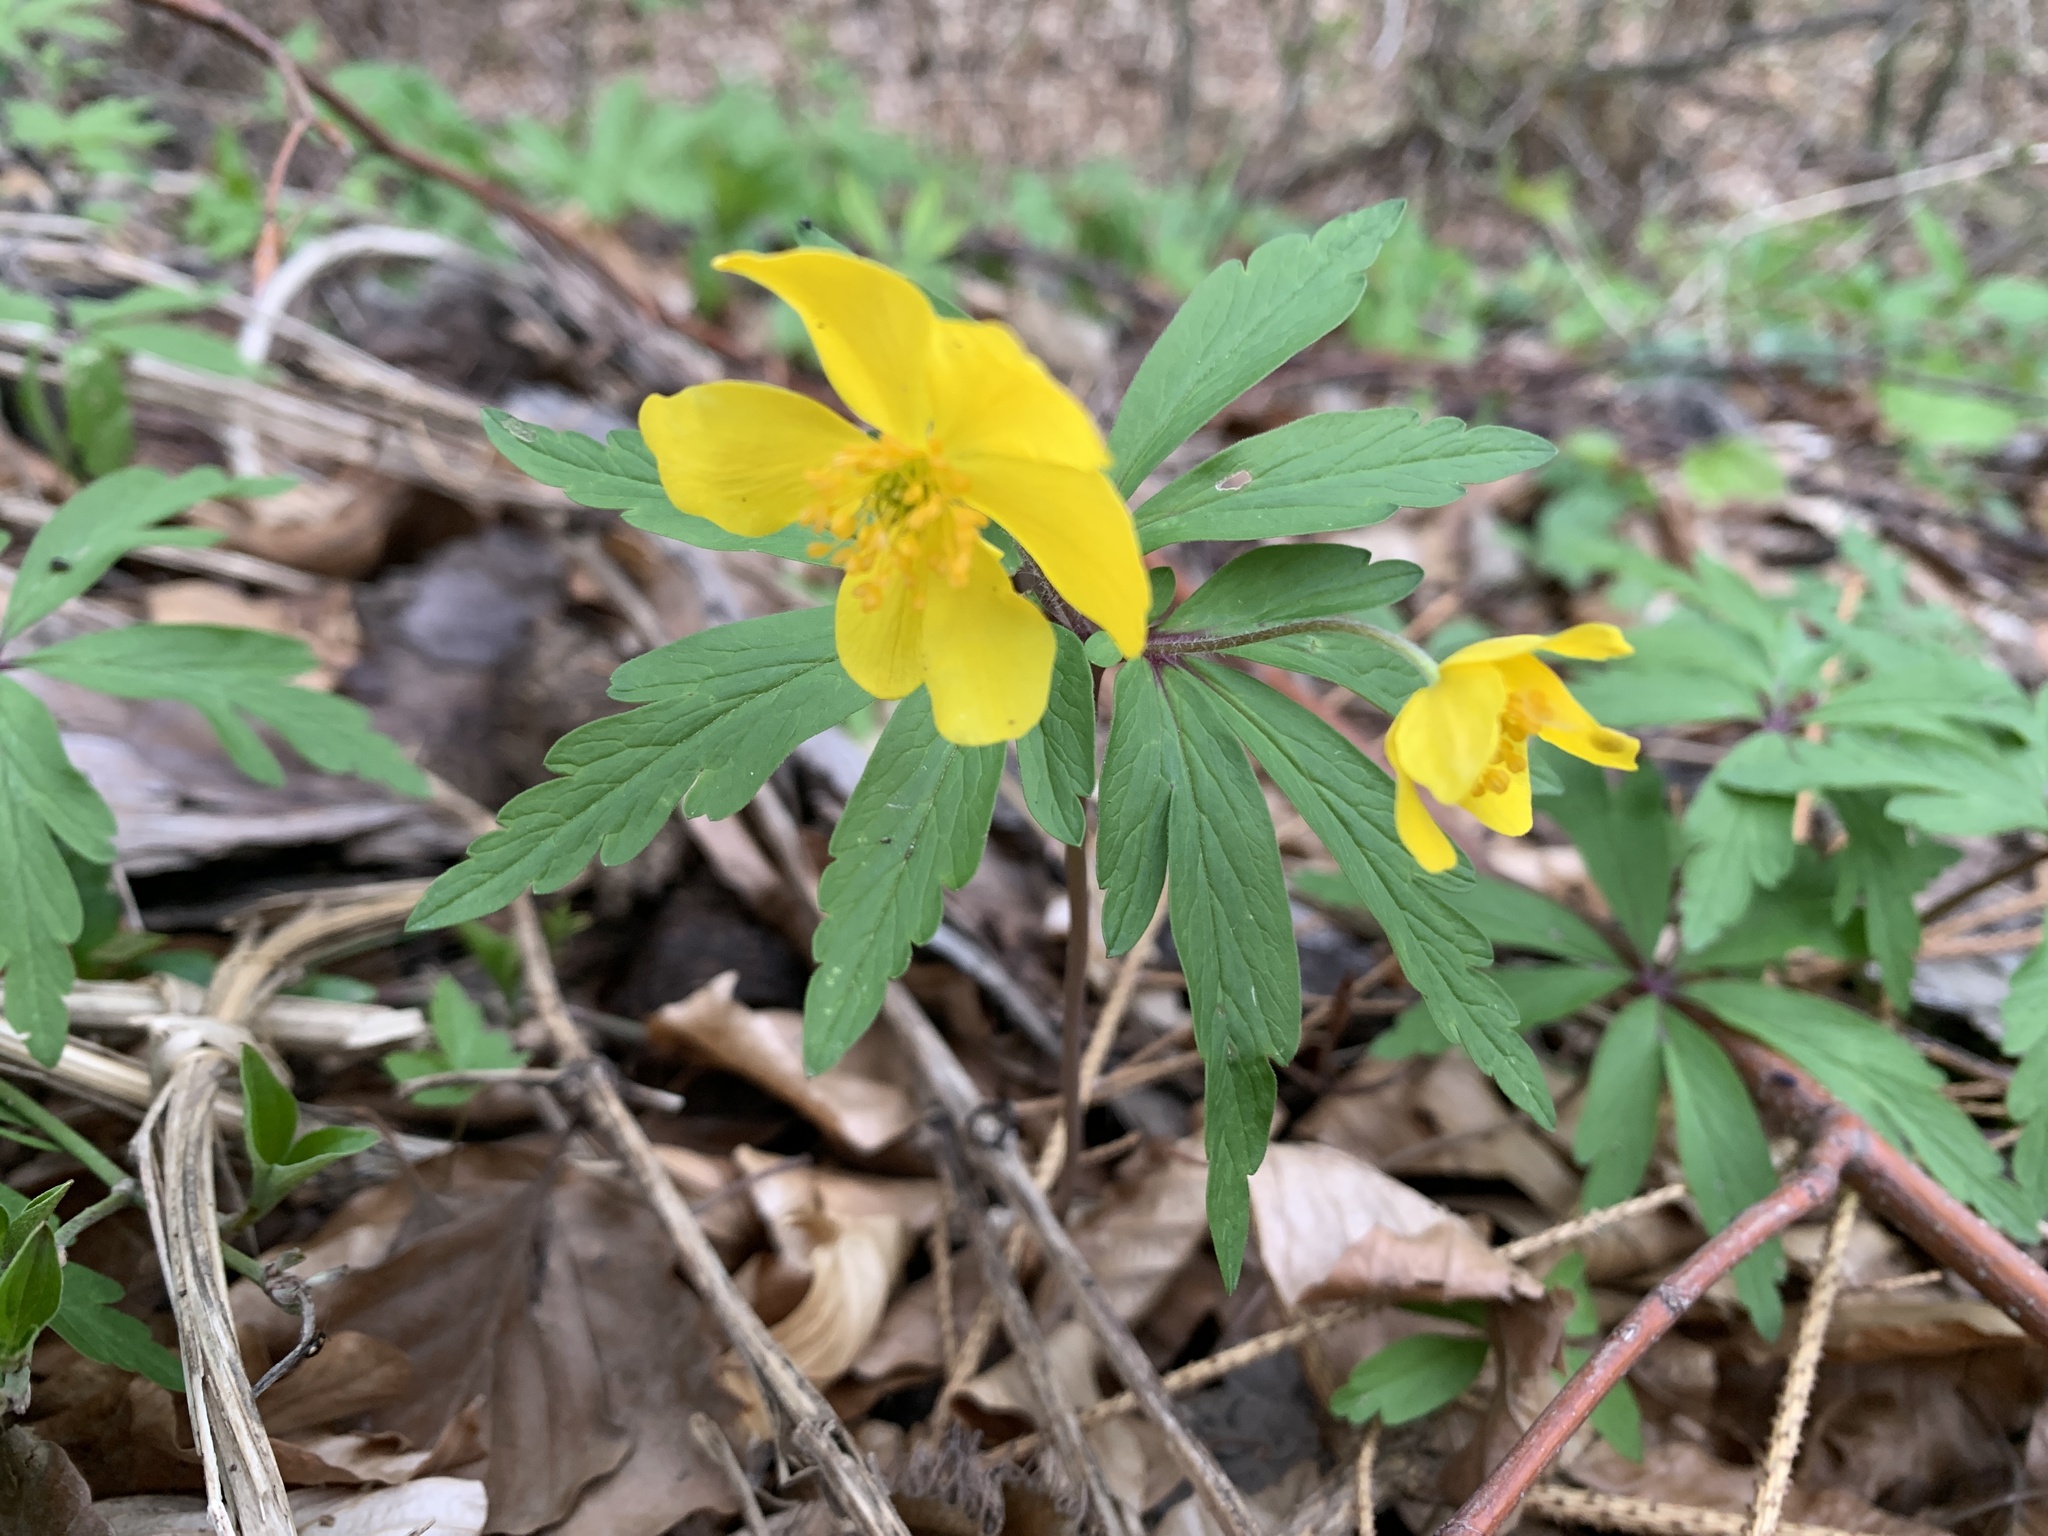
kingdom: Plantae
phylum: Tracheophyta
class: Magnoliopsida
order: Ranunculales
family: Ranunculaceae
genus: Anemone
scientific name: Anemone ranunculoides
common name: Yellow anemone
